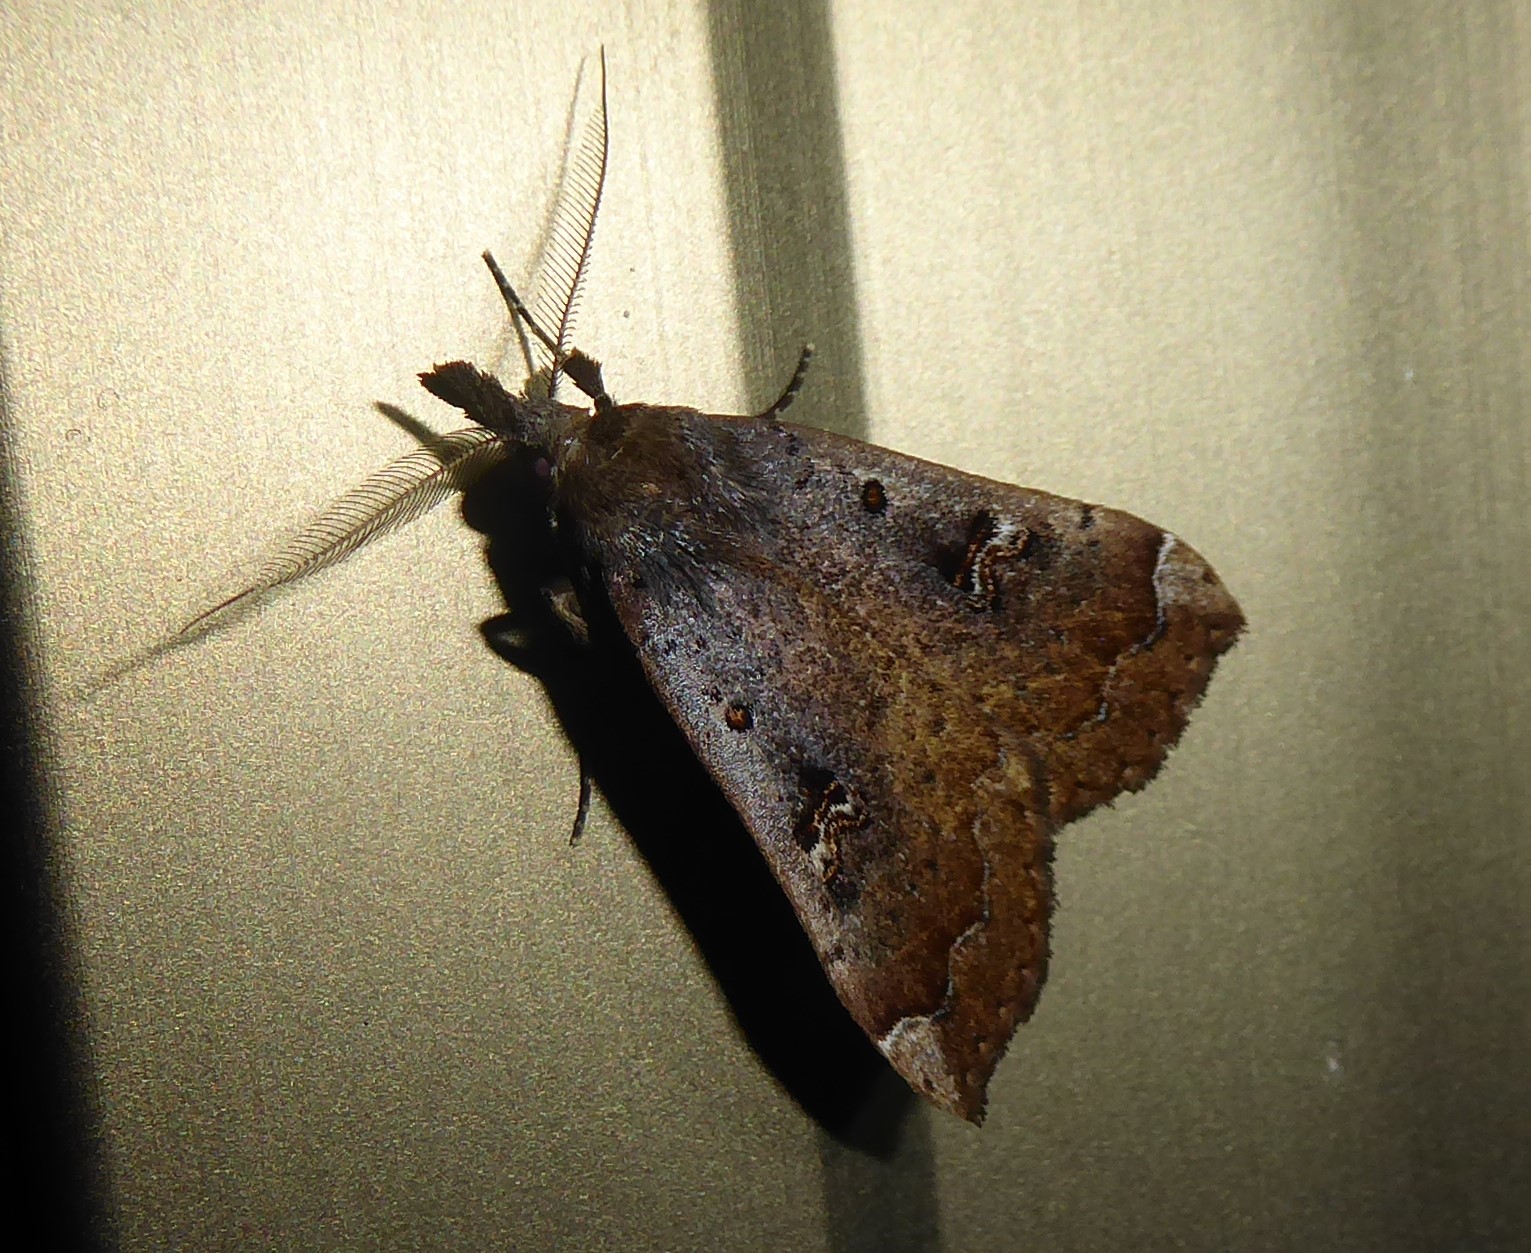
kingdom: Animalia
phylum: Arthropoda
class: Insecta
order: Lepidoptera
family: Erebidae
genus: Rhapsa
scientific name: Rhapsa scotosialis
